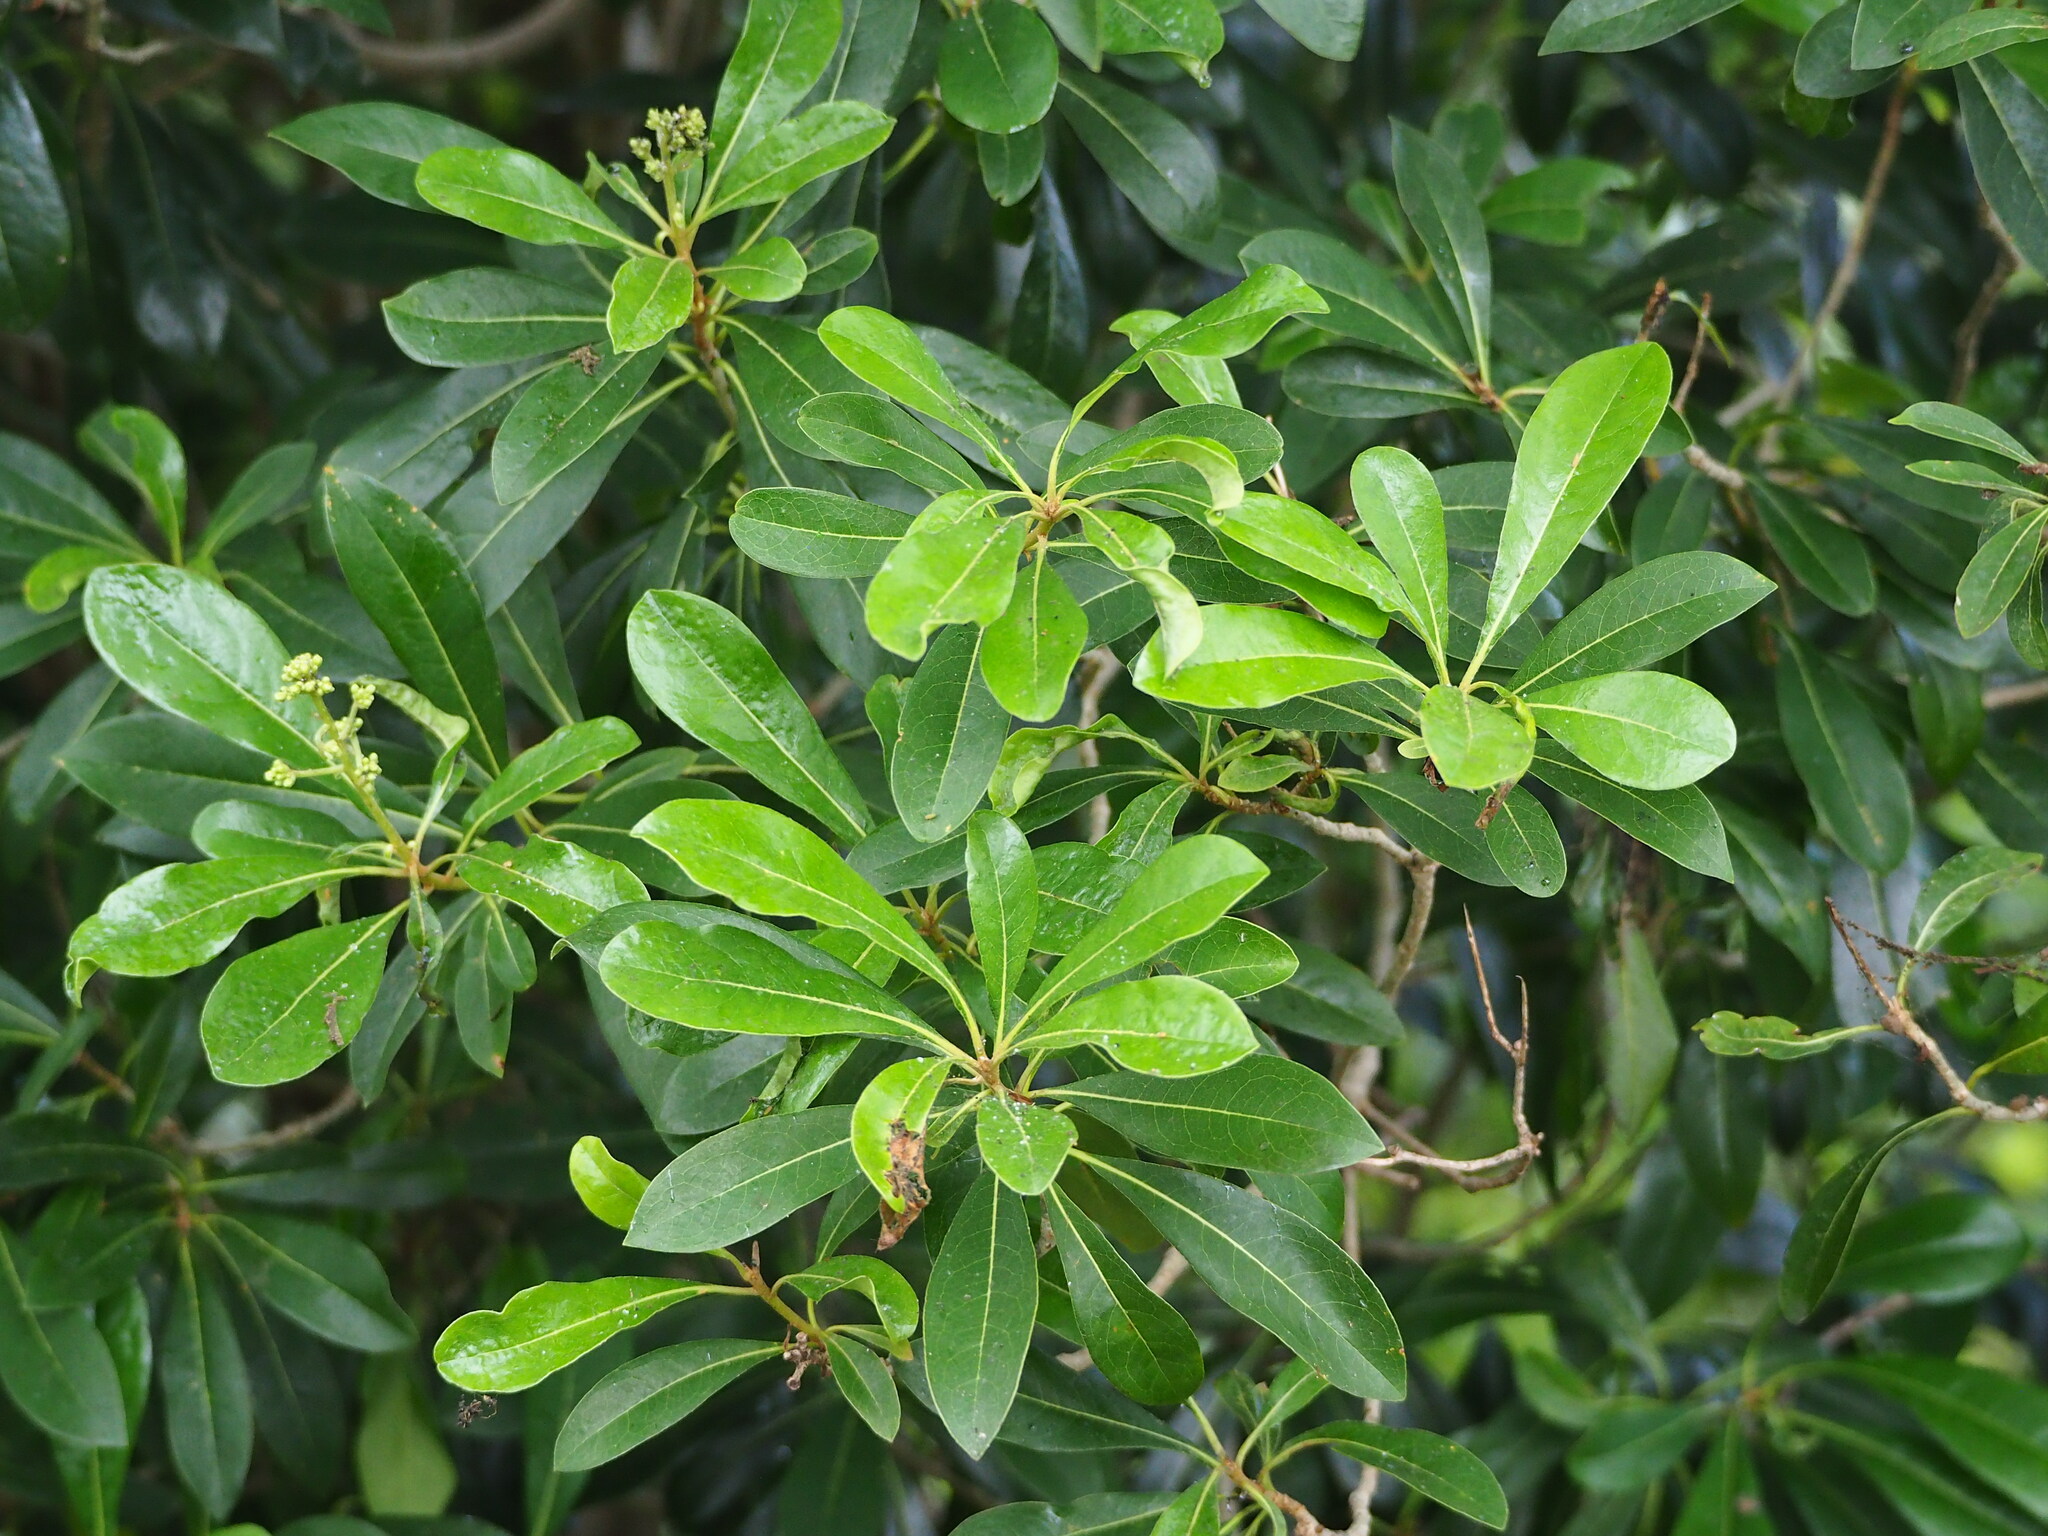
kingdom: Plantae
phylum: Tracheophyta
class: Magnoliopsida
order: Apiales
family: Pittosporaceae
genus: Pittosporum
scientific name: Pittosporum pentandrum
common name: Taiwanese cheesewood
